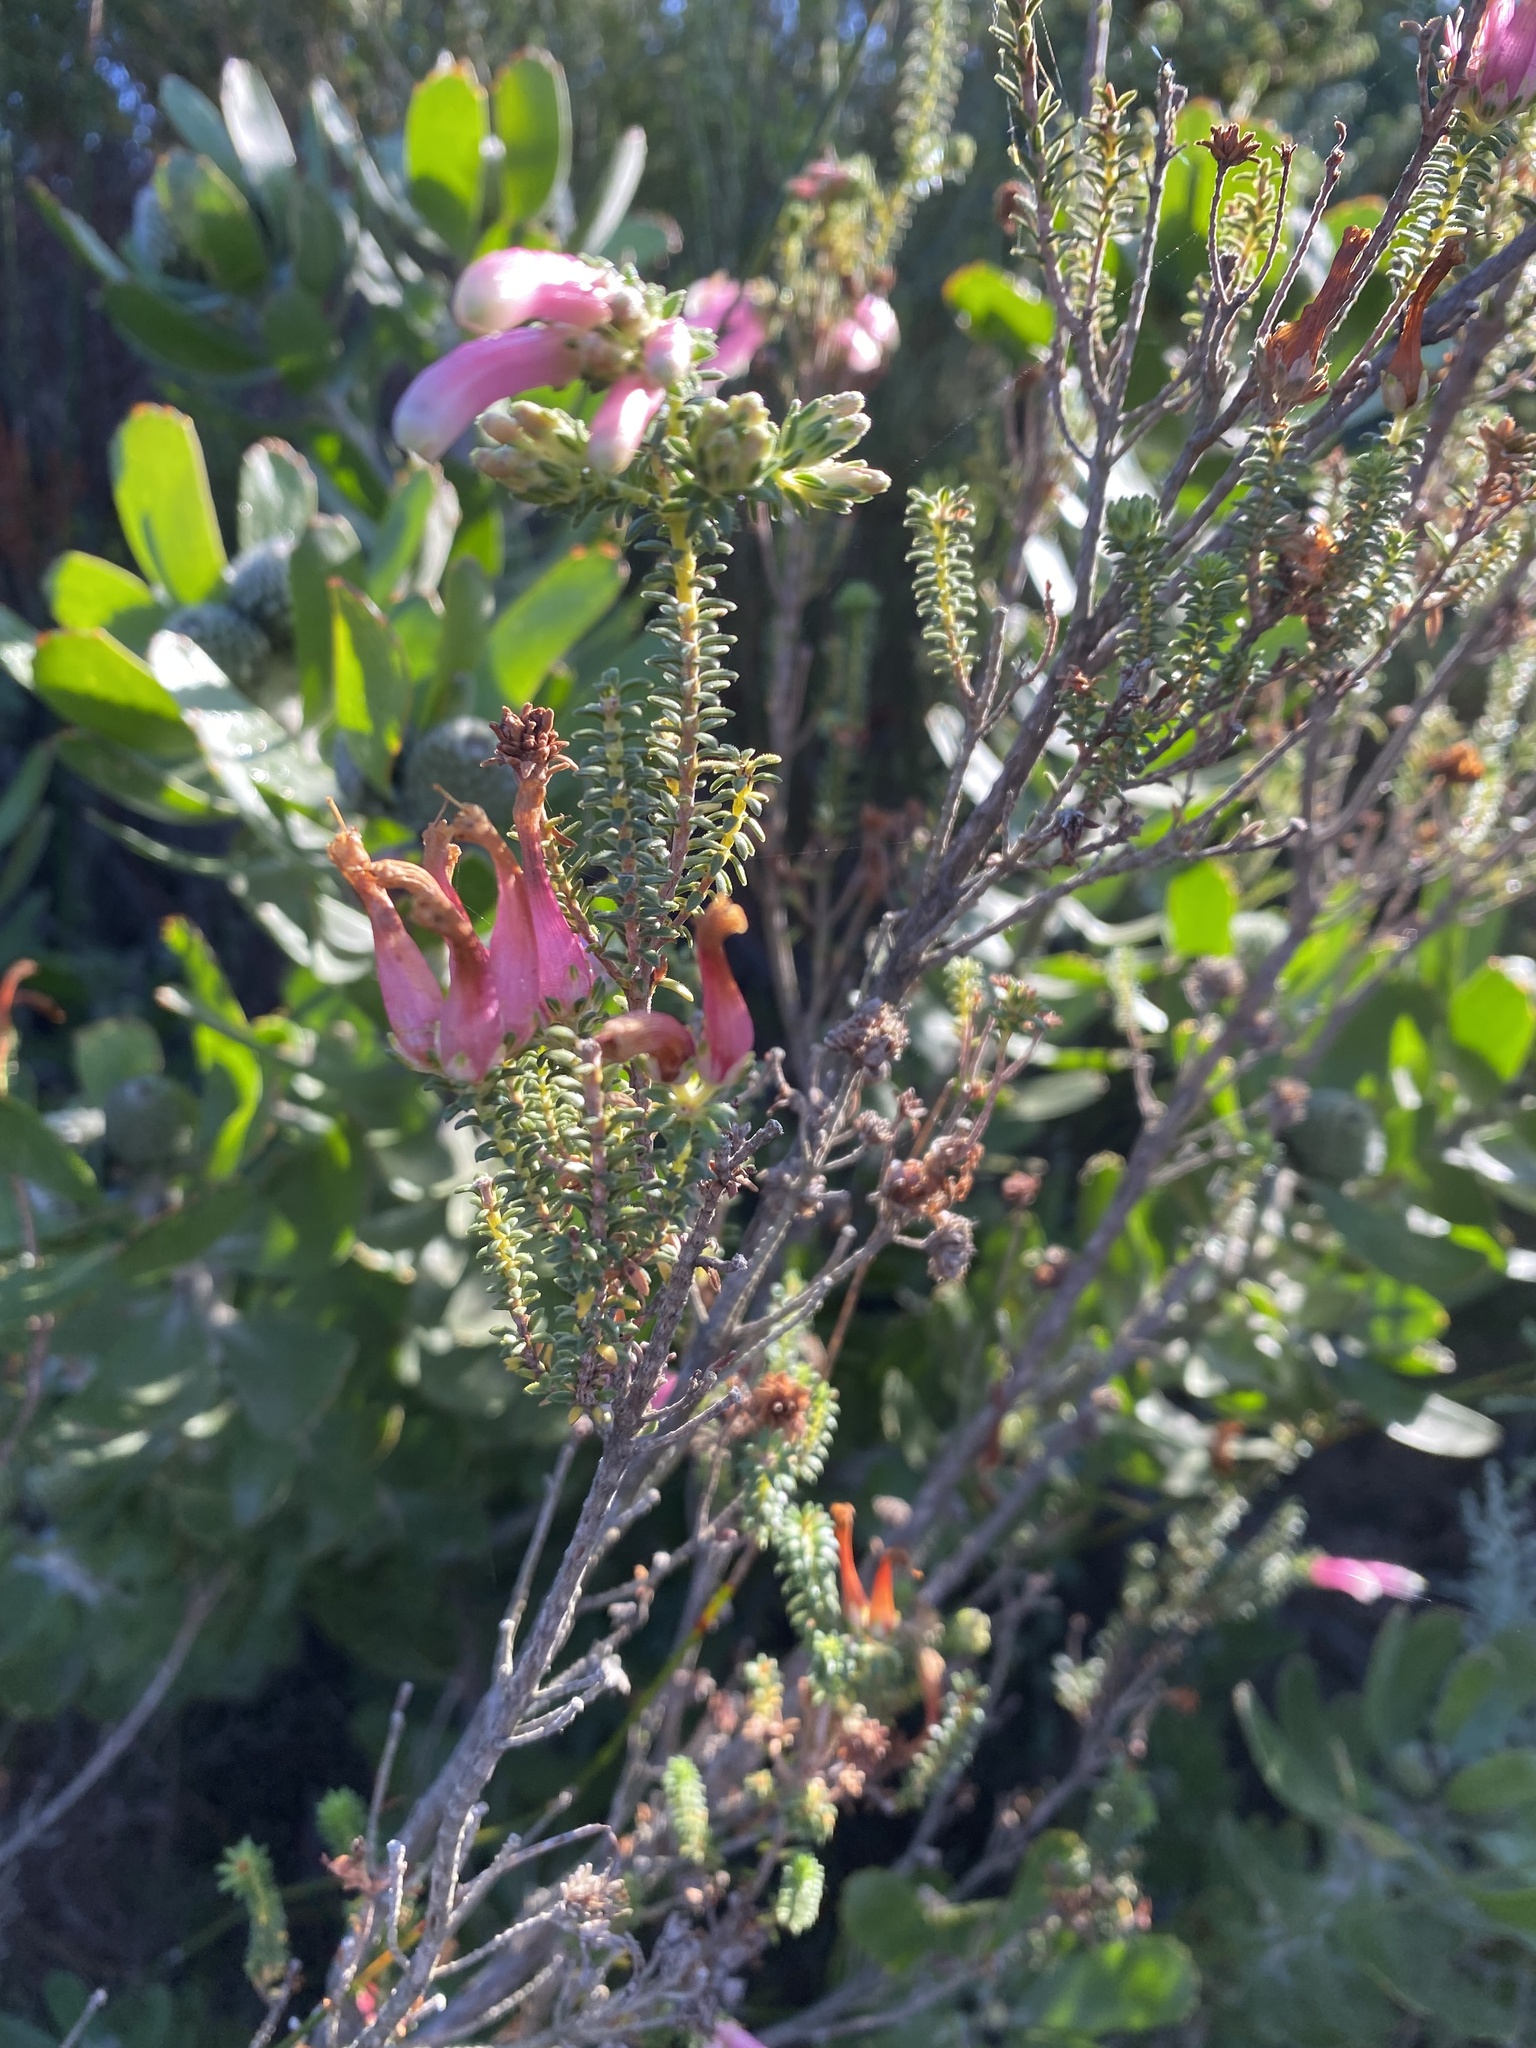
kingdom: Plantae
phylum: Tracheophyta
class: Magnoliopsida
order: Ericales
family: Ericaceae
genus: Erica
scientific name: Erica versicolor
